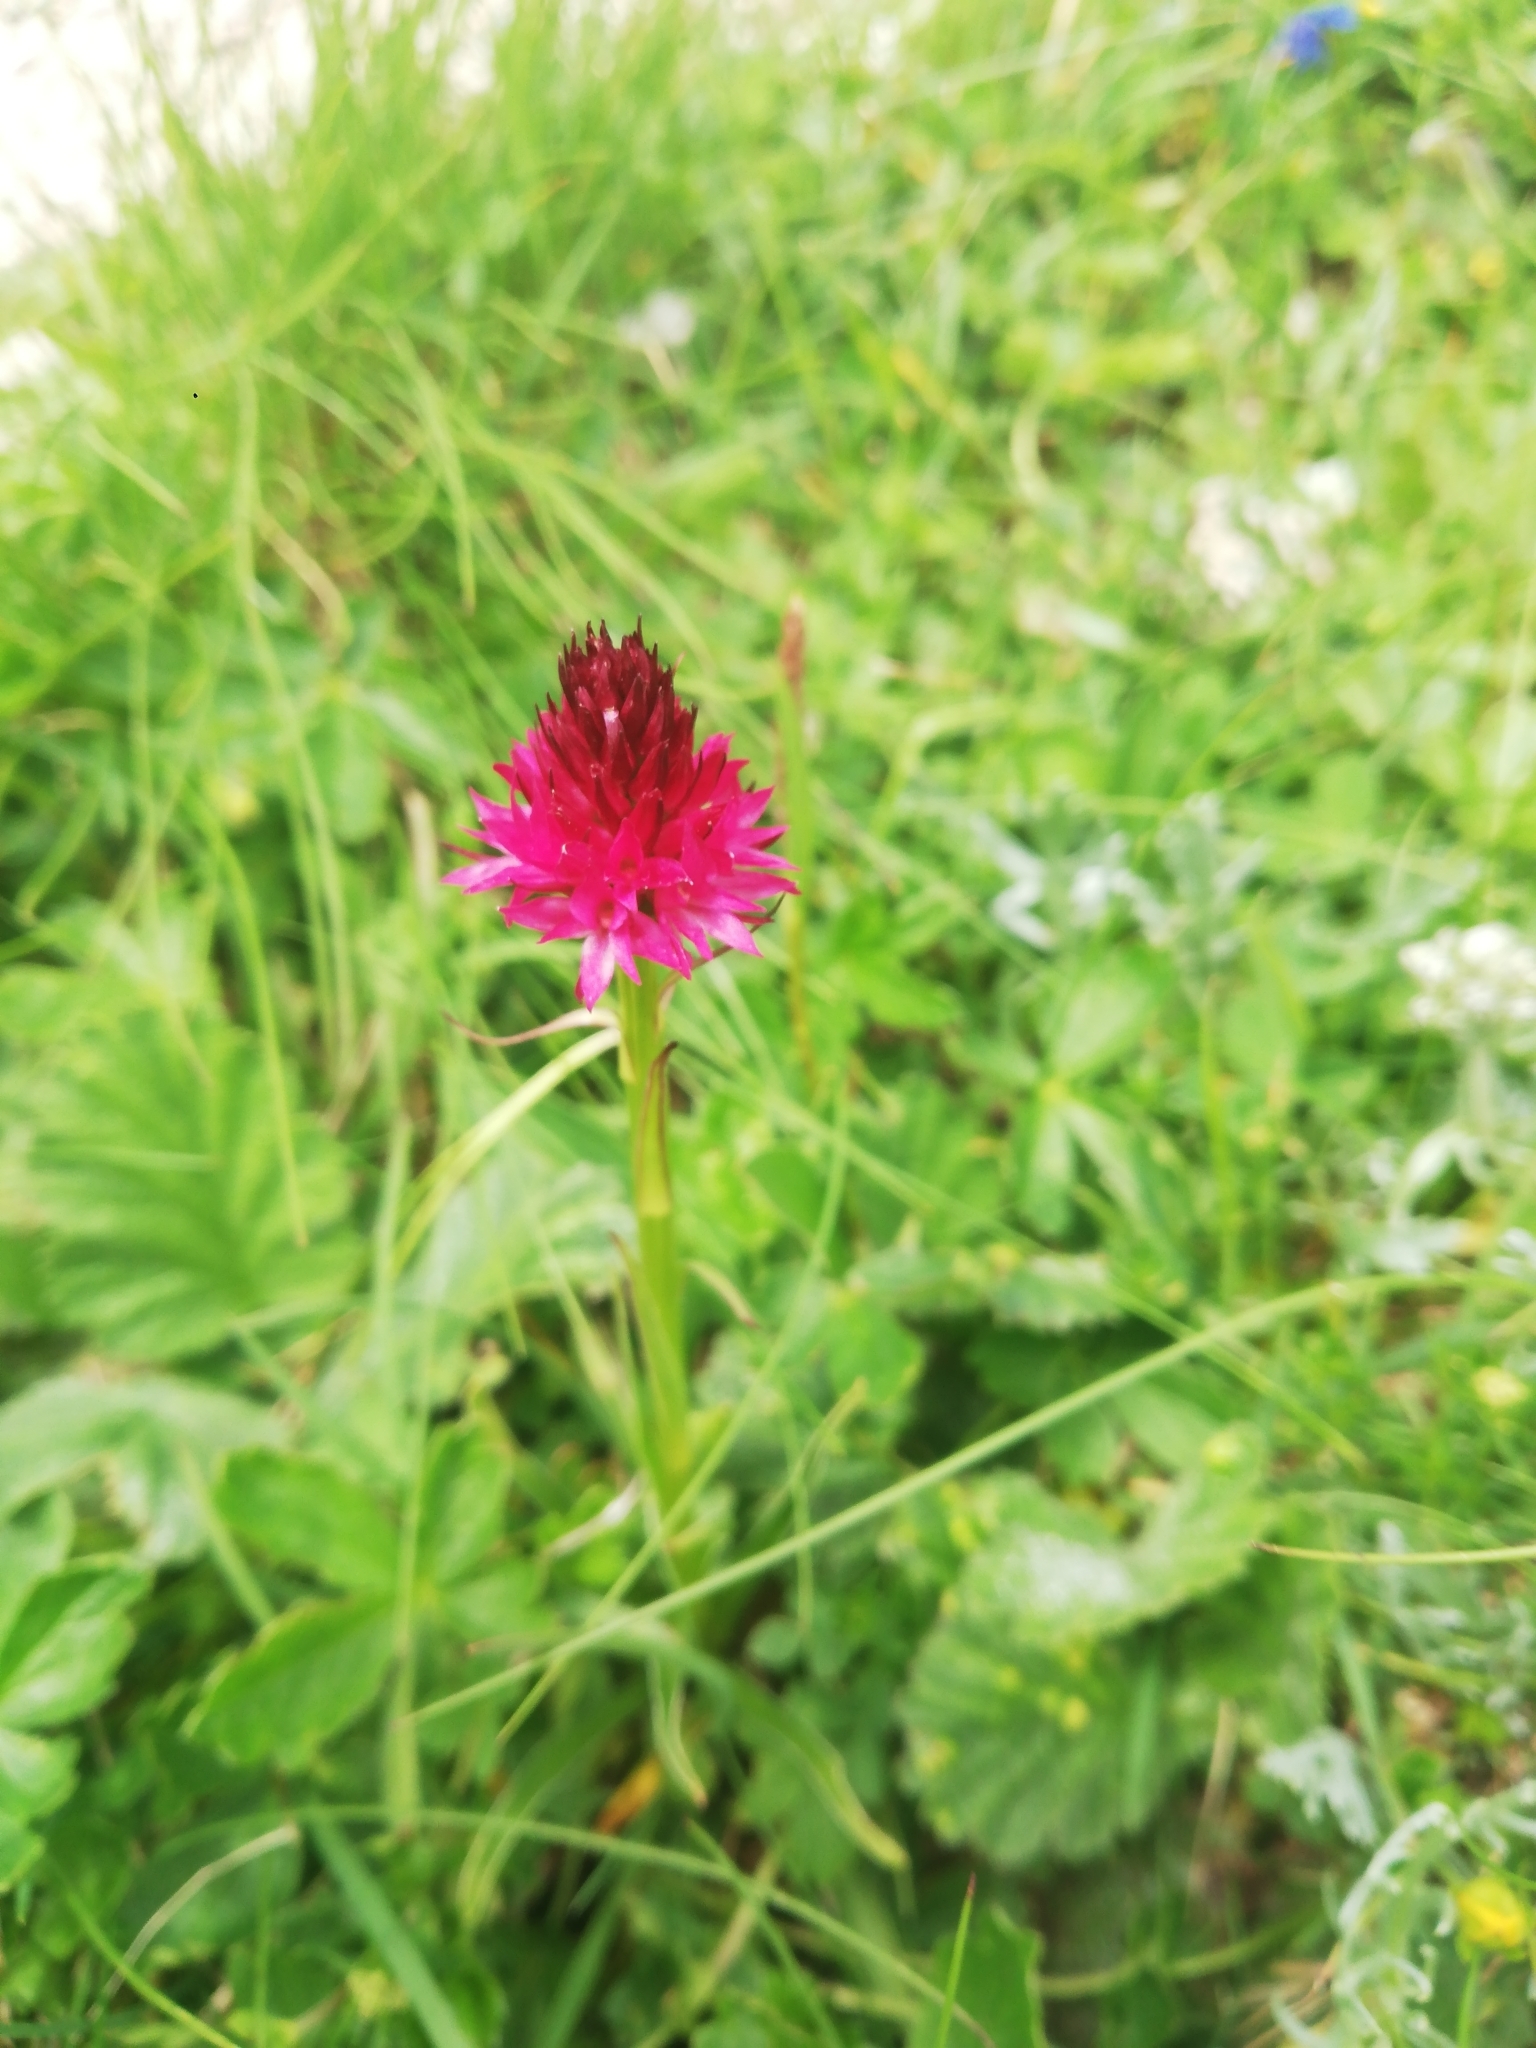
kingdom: Plantae
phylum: Tracheophyta
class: Liliopsida
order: Asparagales
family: Orchidaceae
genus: Gymnadenia
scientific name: Gymnadenia miniata
